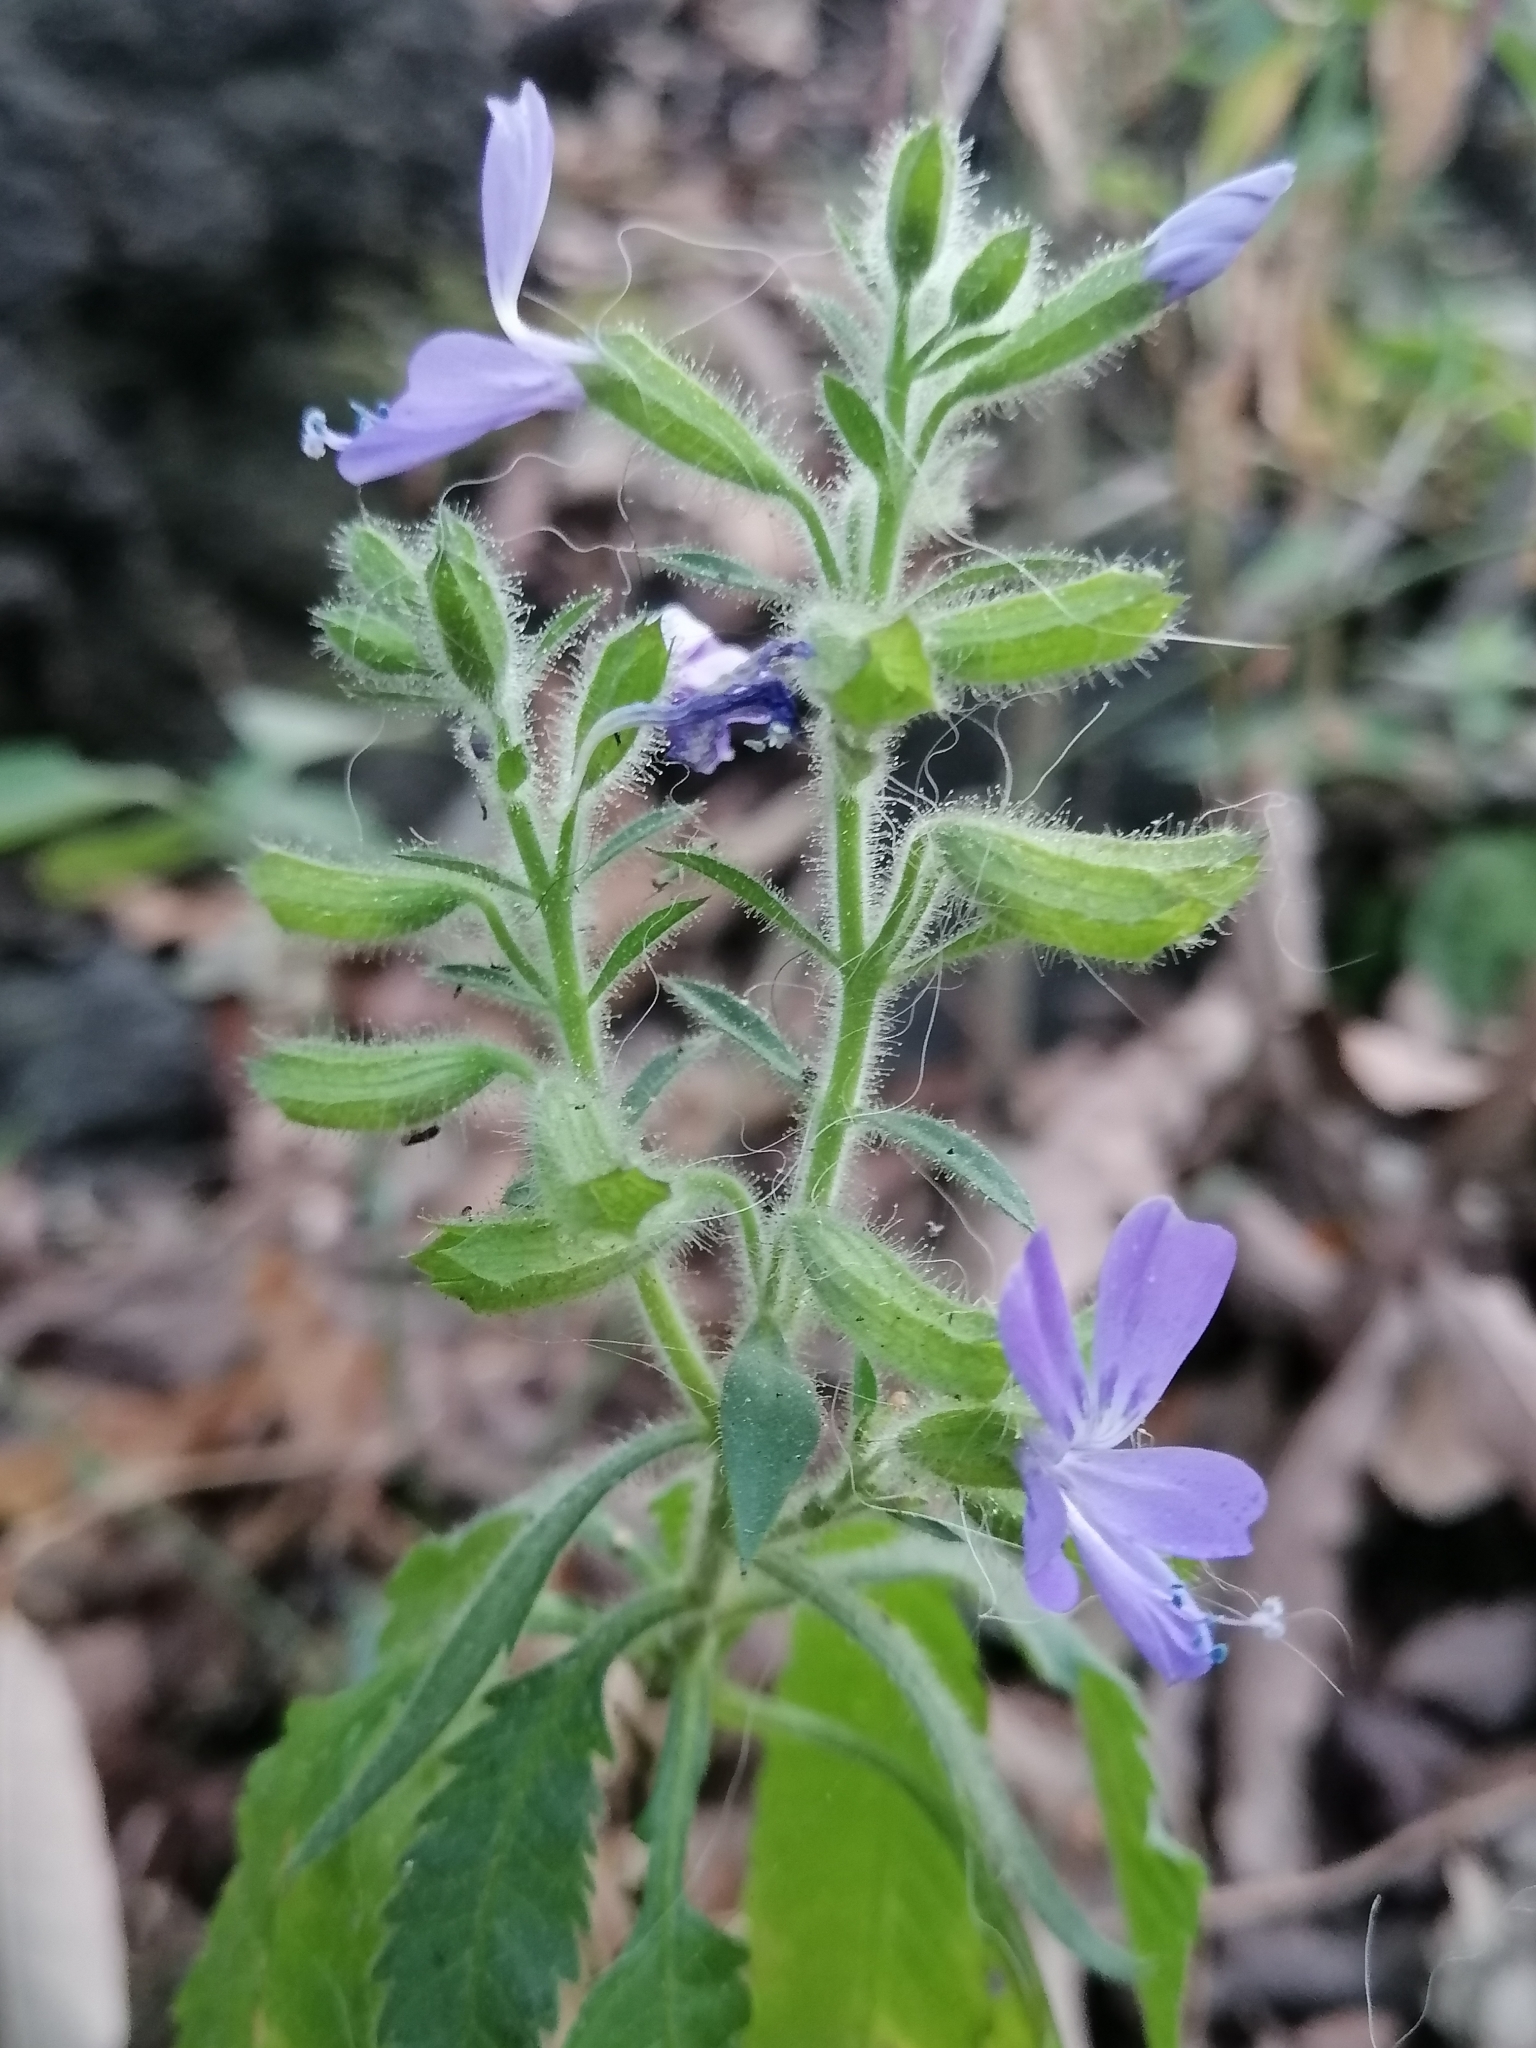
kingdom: Plantae
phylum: Tracheophyta
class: Magnoliopsida
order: Ericales
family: Polemoniaceae
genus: Bonplandia
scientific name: Bonplandia geminiflora
